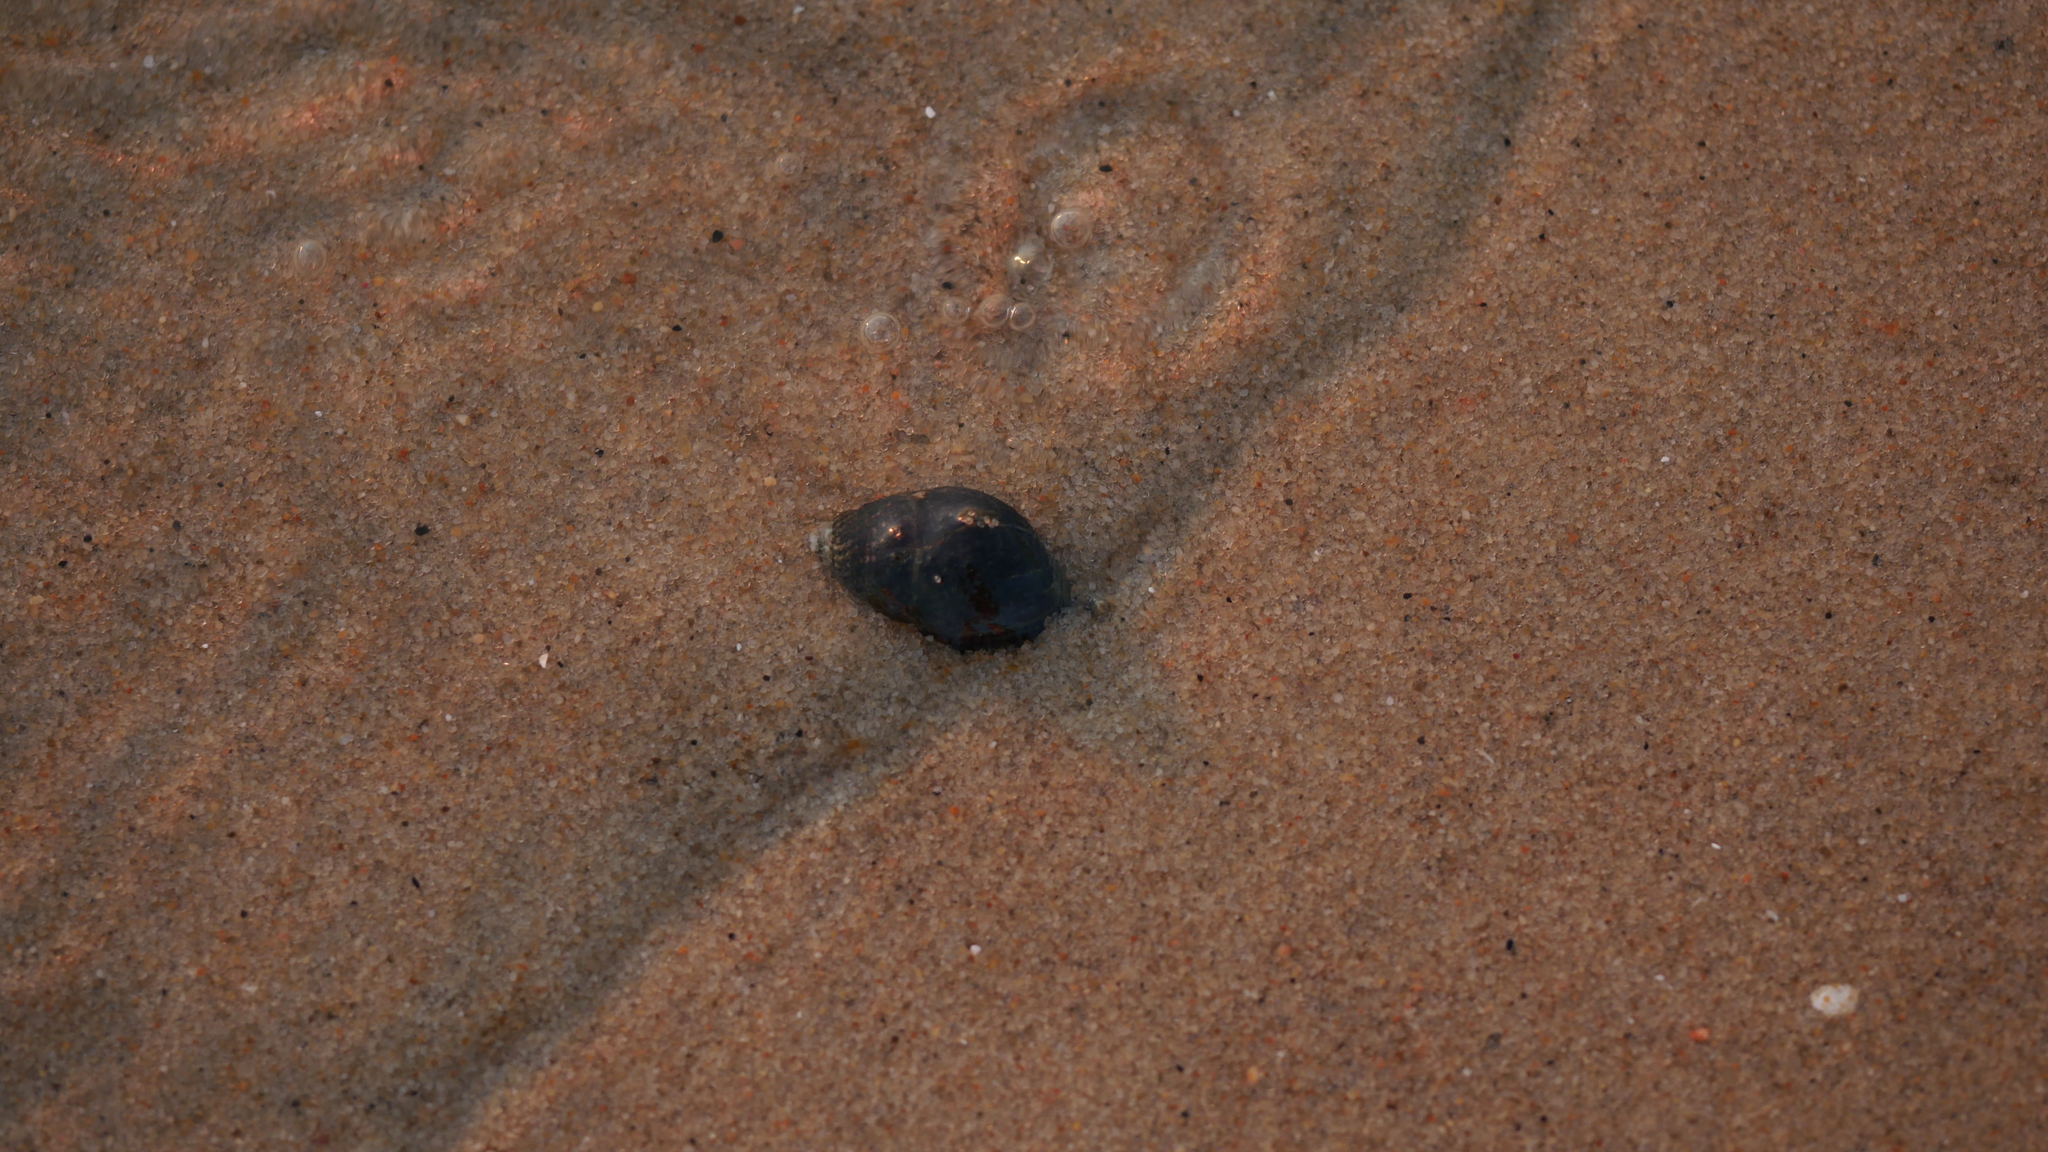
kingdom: Animalia
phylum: Mollusca
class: Gastropoda
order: Neogastropoda
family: Nassariidae
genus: Ilyanassa
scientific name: Ilyanassa obsoleta
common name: Eastern mudsnail
